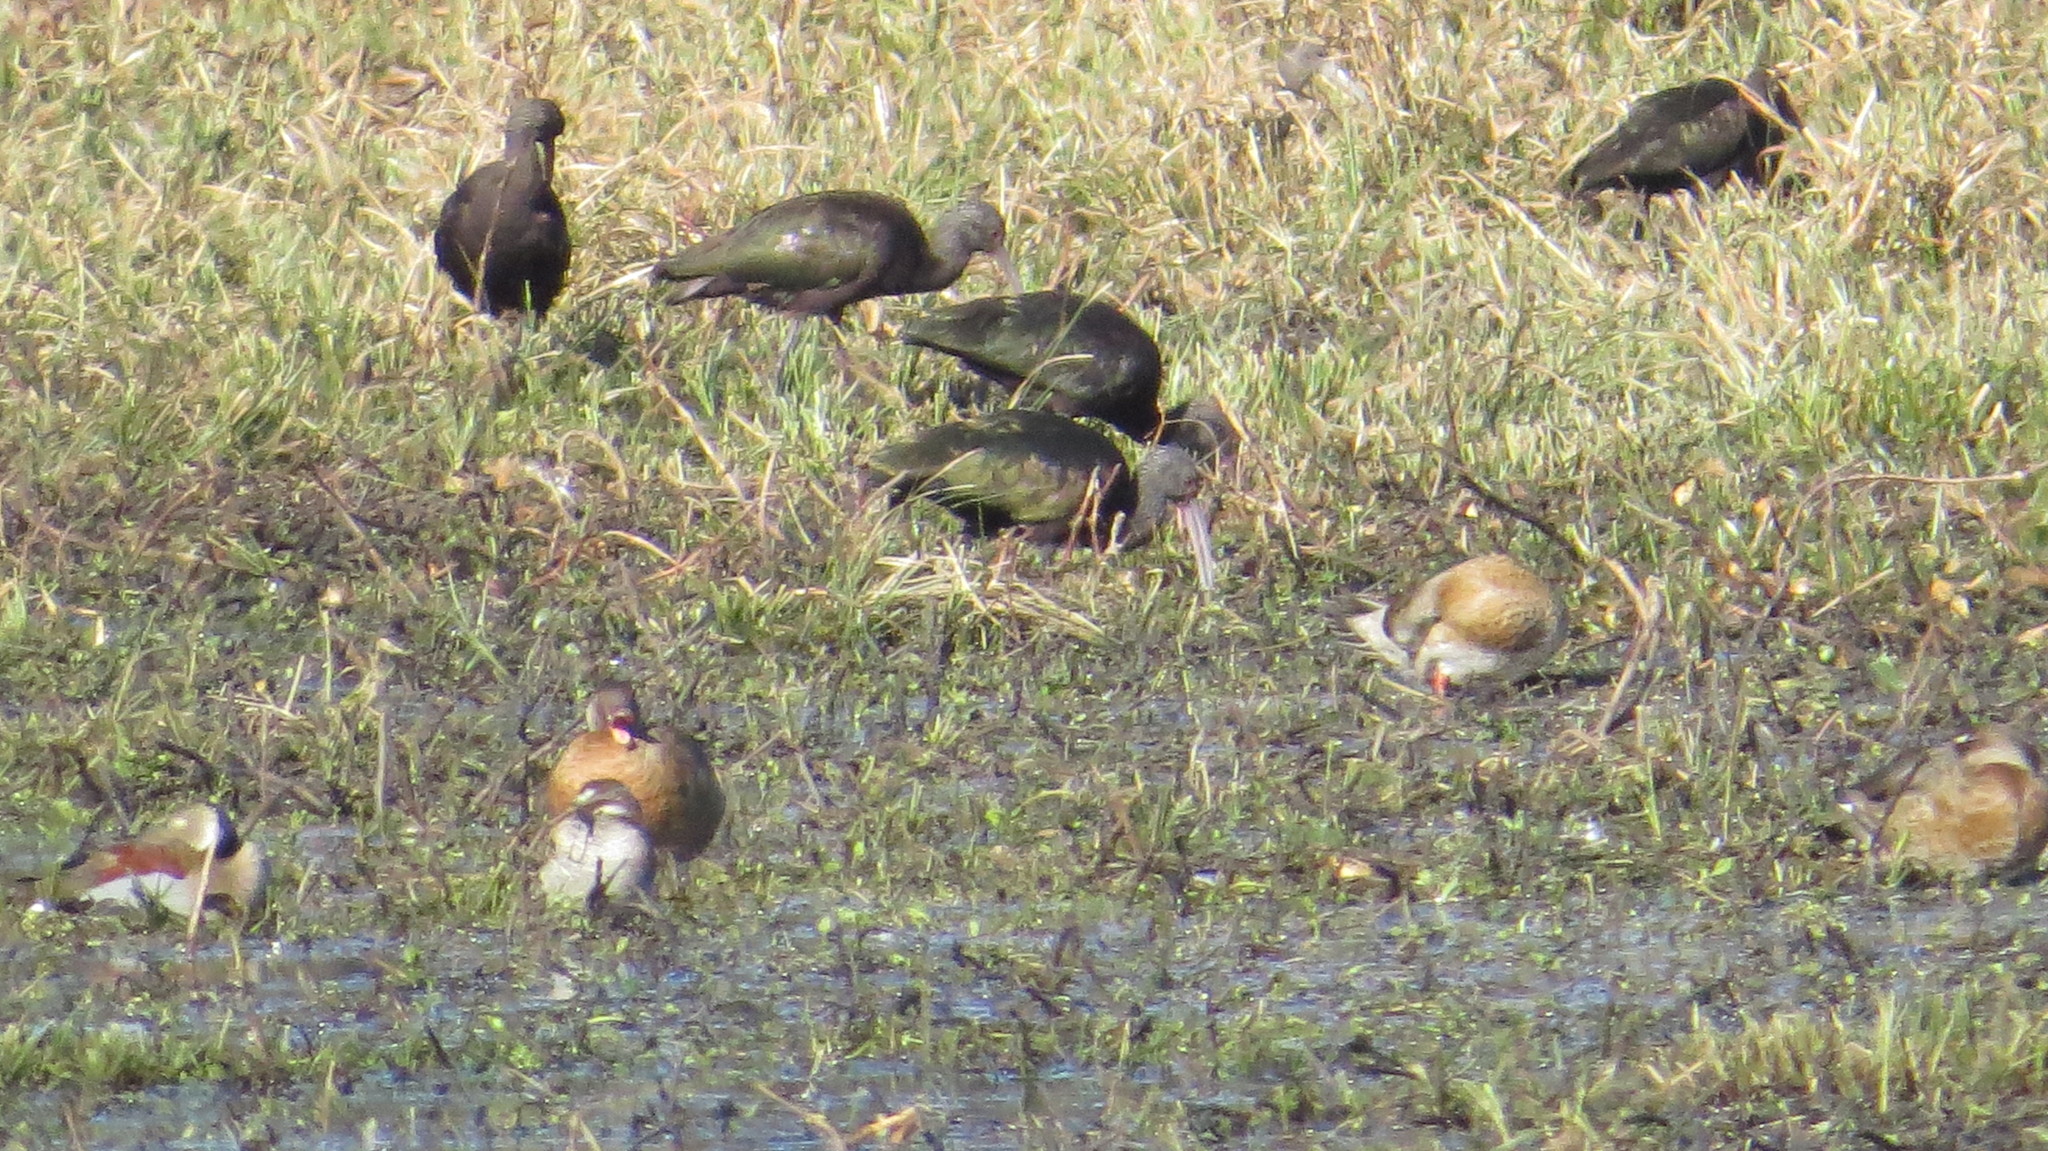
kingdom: Animalia
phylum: Chordata
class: Aves
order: Anseriformes
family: Anatidae
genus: Callonetta
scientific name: Callonetta leucophrys
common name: Ringed teal
